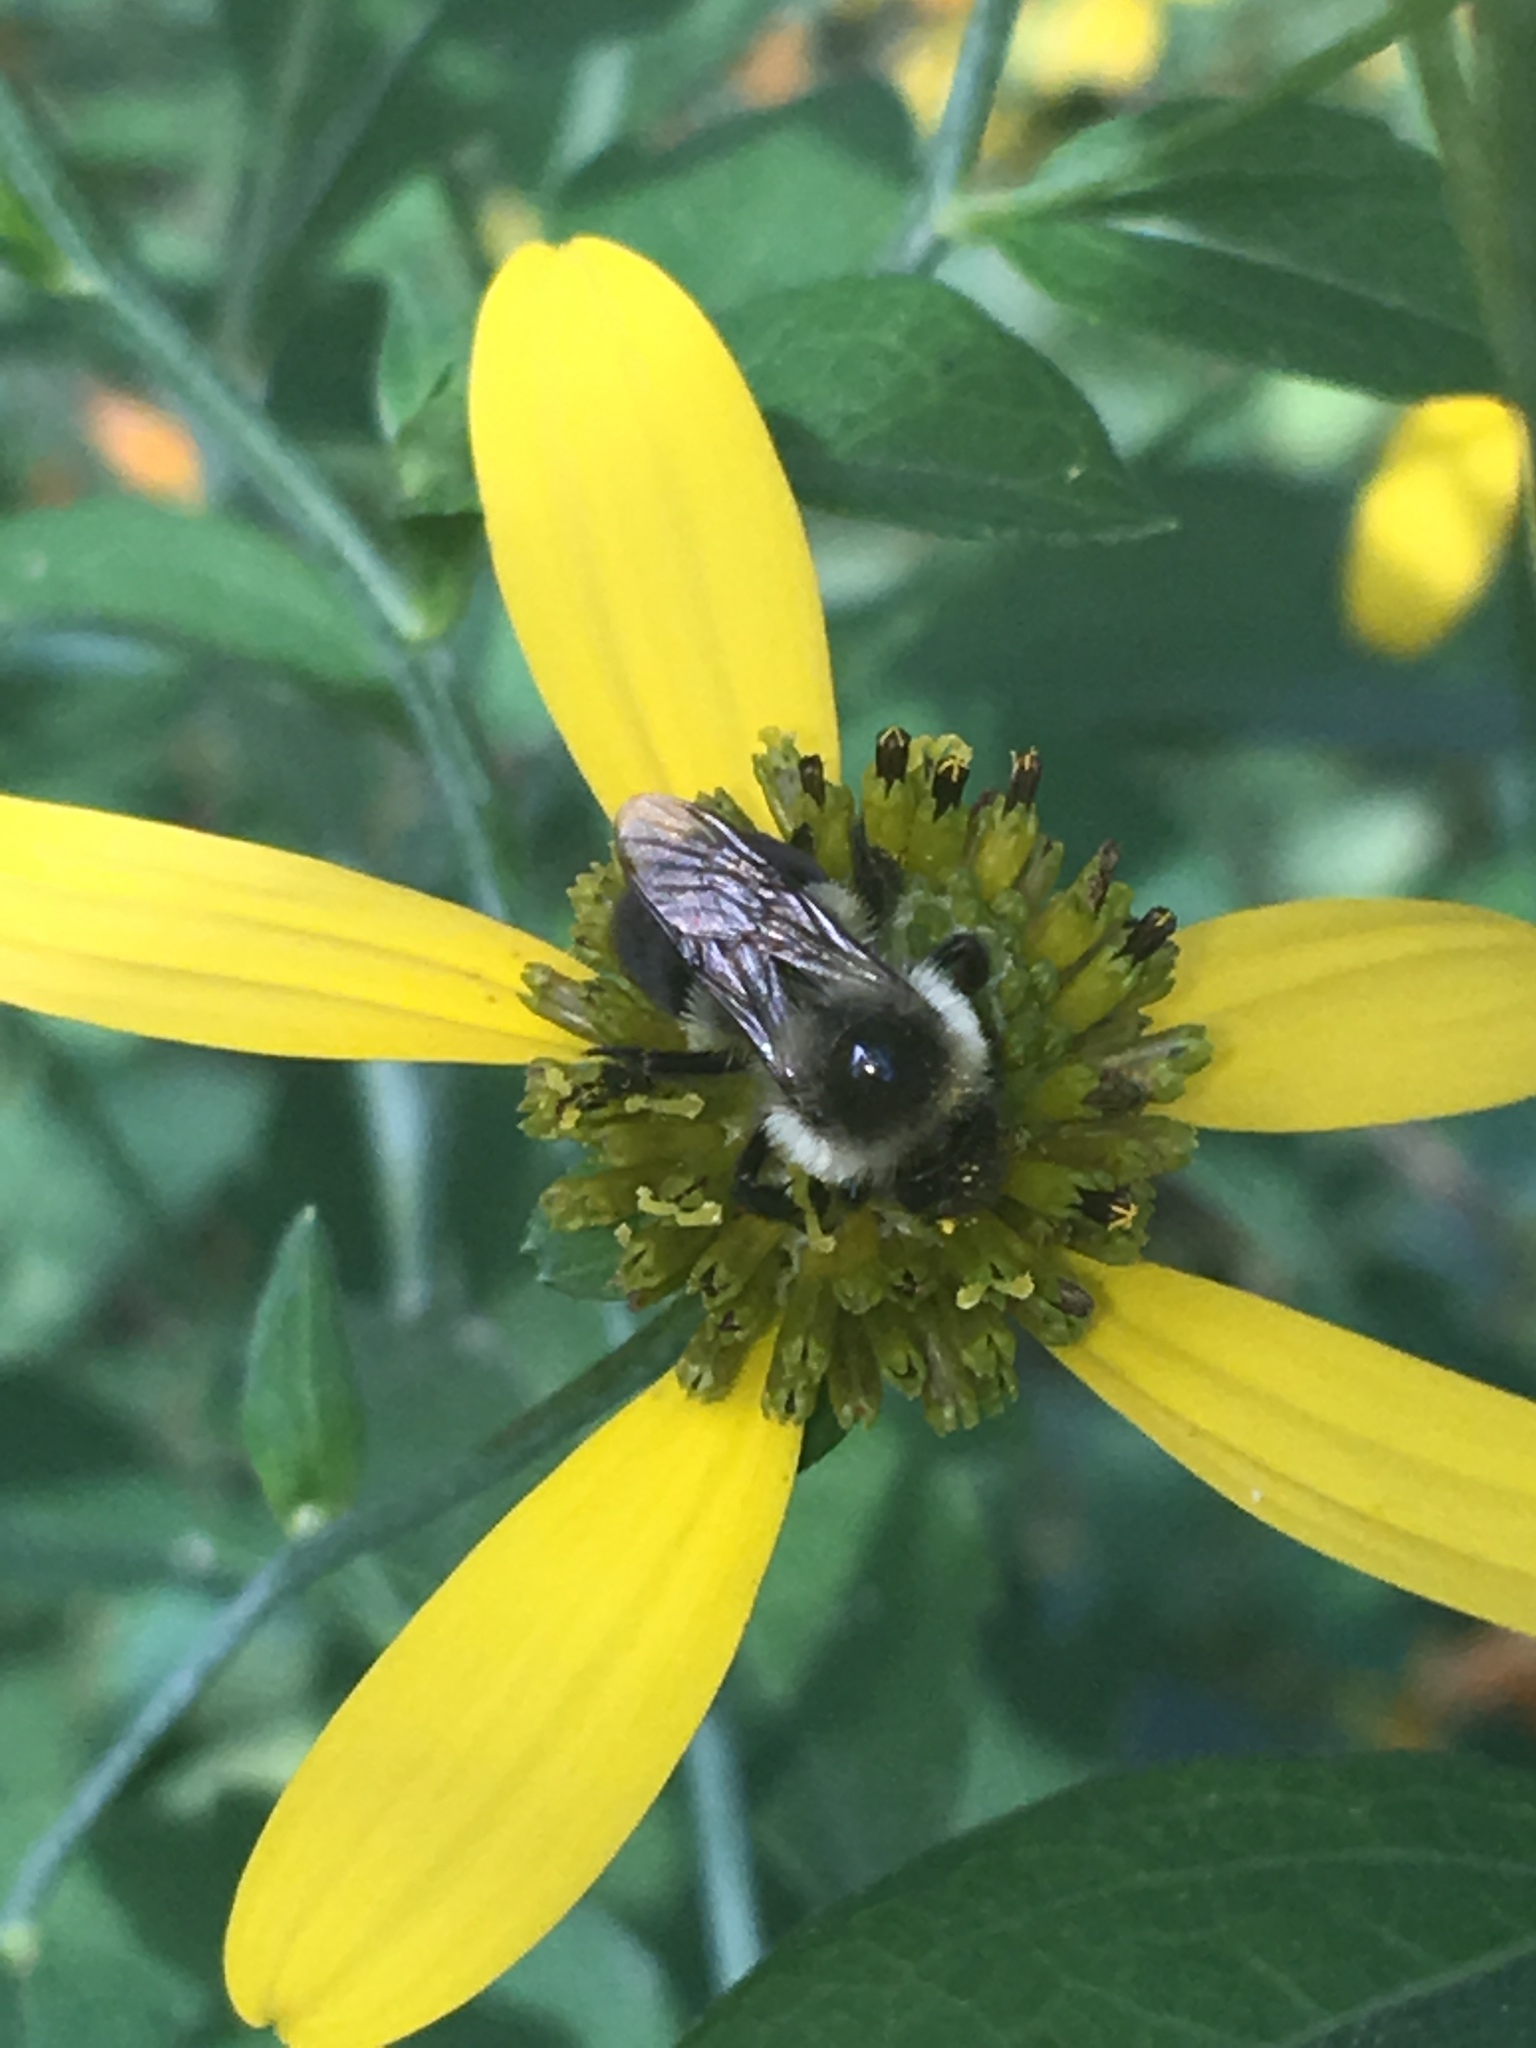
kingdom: Animalia
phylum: Arthropoda
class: Insecta
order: Hymenoptera
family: Apidae
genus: Bombus
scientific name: Bombus impatiens
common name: Common eastern bumble bee
